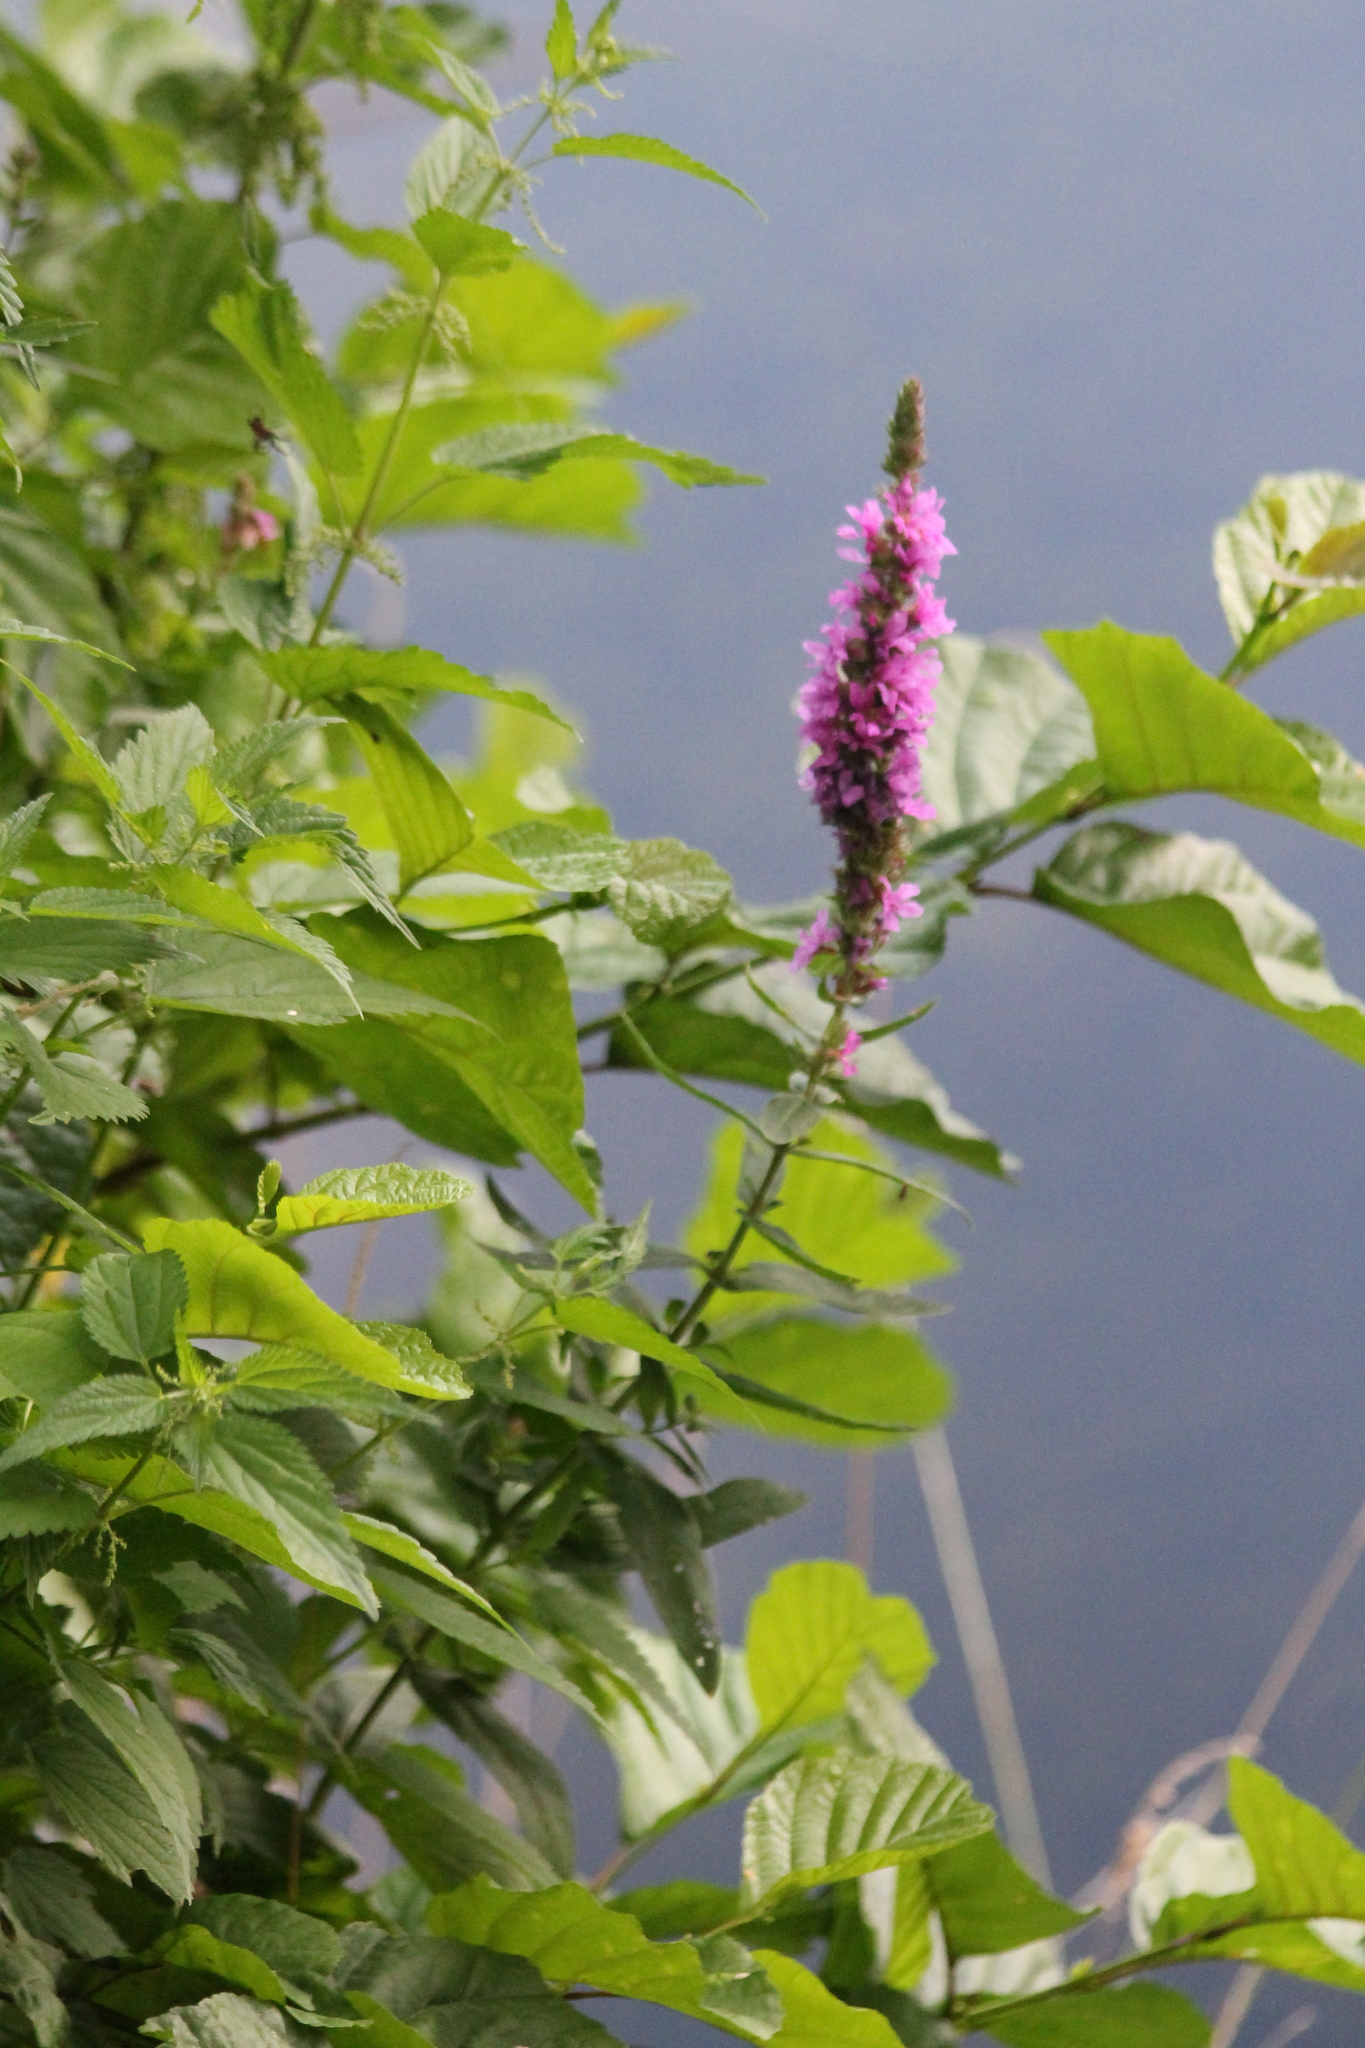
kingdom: Plantae
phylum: Tracheophyta
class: Magnoliopsida
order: Myrtales
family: Lythraceae
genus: Lythrum
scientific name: Lythrum salicaria
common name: Purple loosestrife
